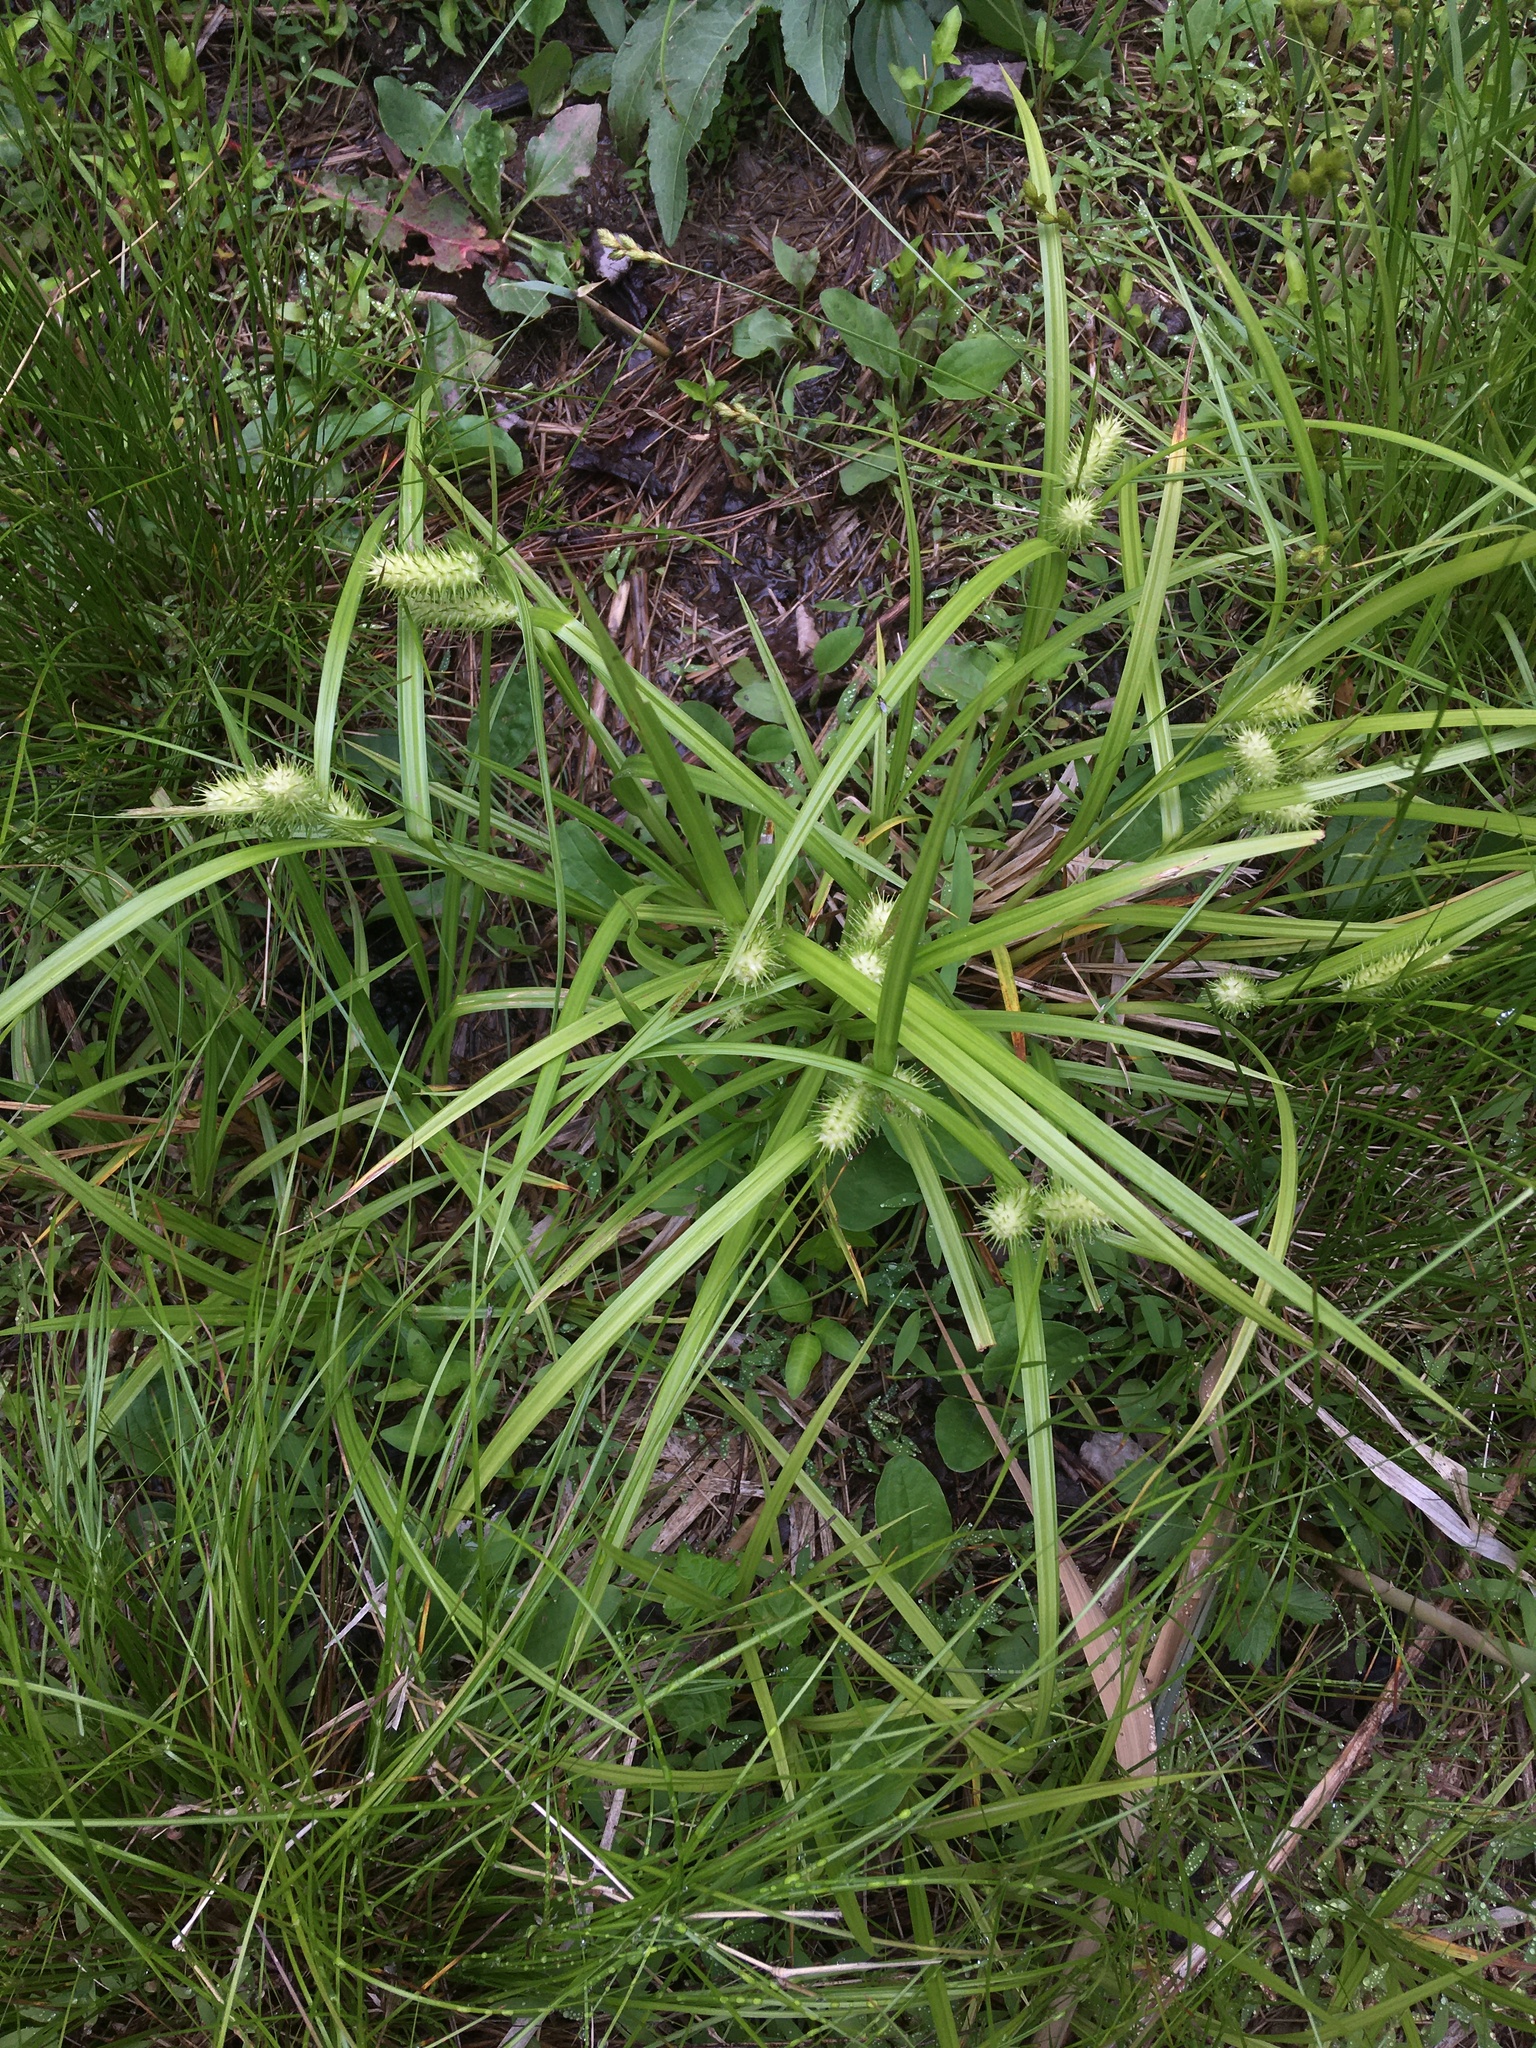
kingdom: Plantae
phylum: Tracheophyta
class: Liliopsida
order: Poales
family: Cyperaceae
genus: Carex
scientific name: Carex lurida
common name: Sallow sedge
